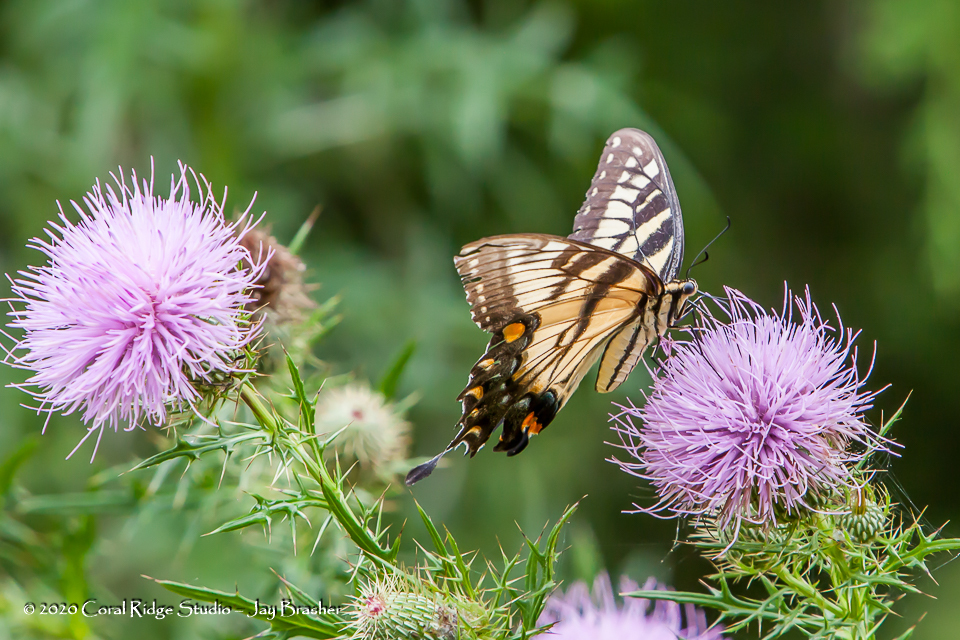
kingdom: Animalia
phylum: Arthropoda
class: Insecta
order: Lepidoptera
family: Papilionidae
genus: Papilio
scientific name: Papilio glaucus
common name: Tiger swallowtail
